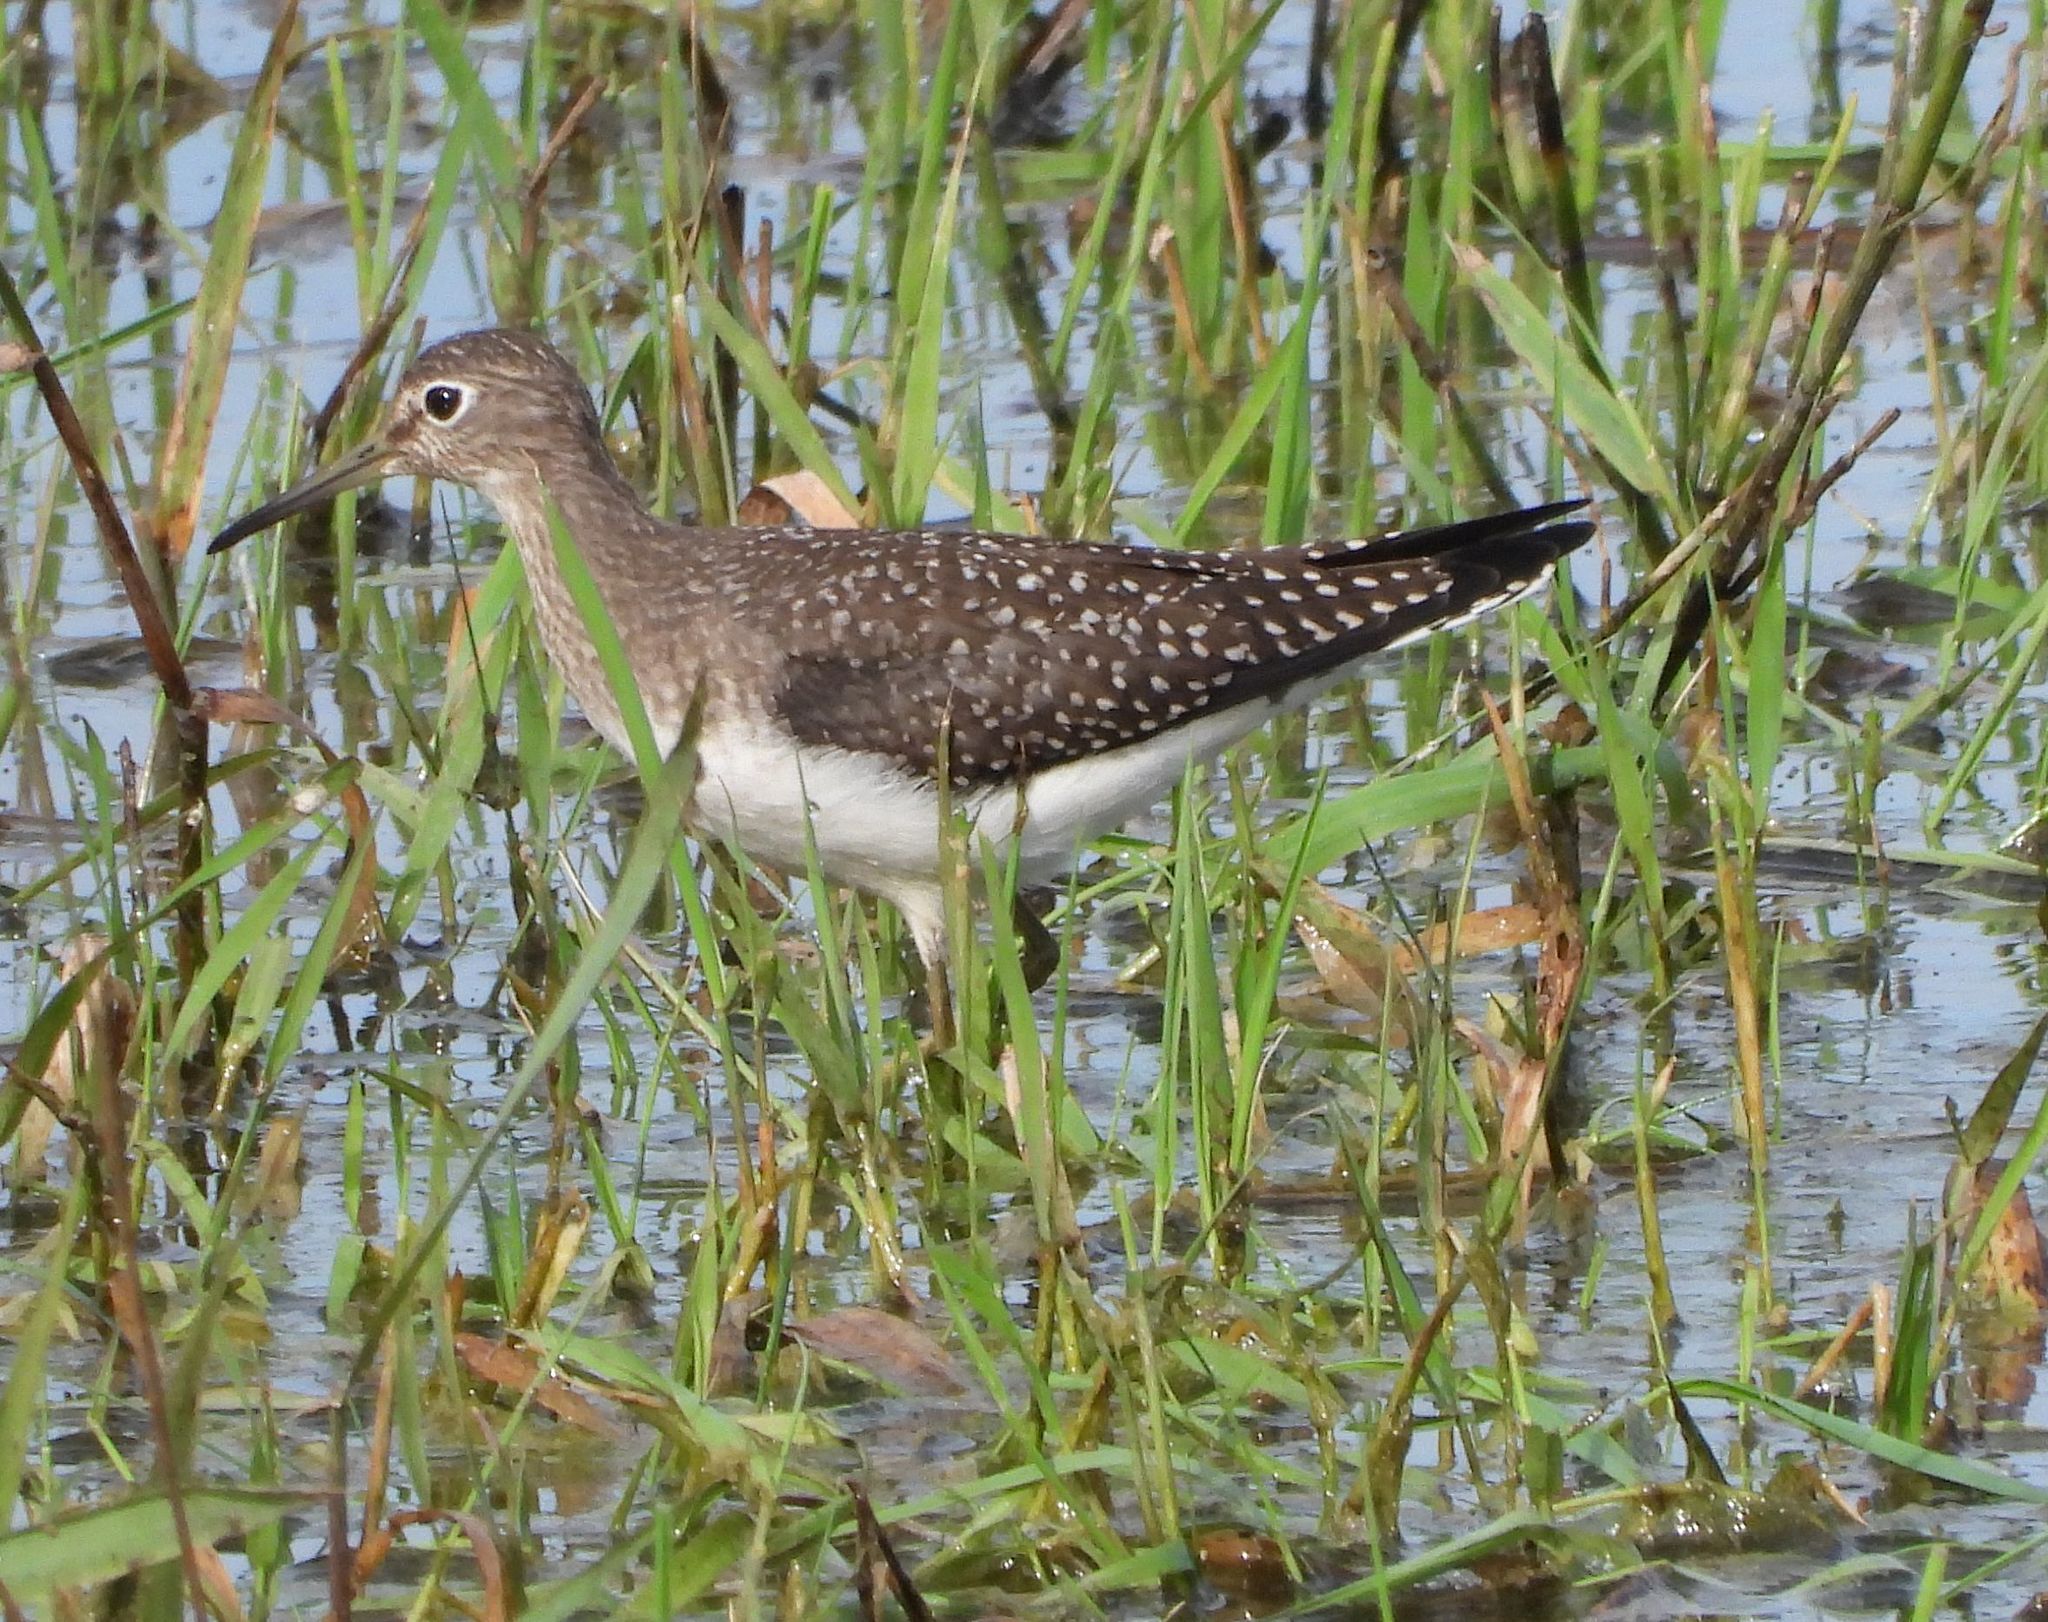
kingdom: Animalia
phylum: Chordata
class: Aves
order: Charadriiformes
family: Scolopacidae
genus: Tringa
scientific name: Tringa solitaria
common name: Solitary sandpiper
